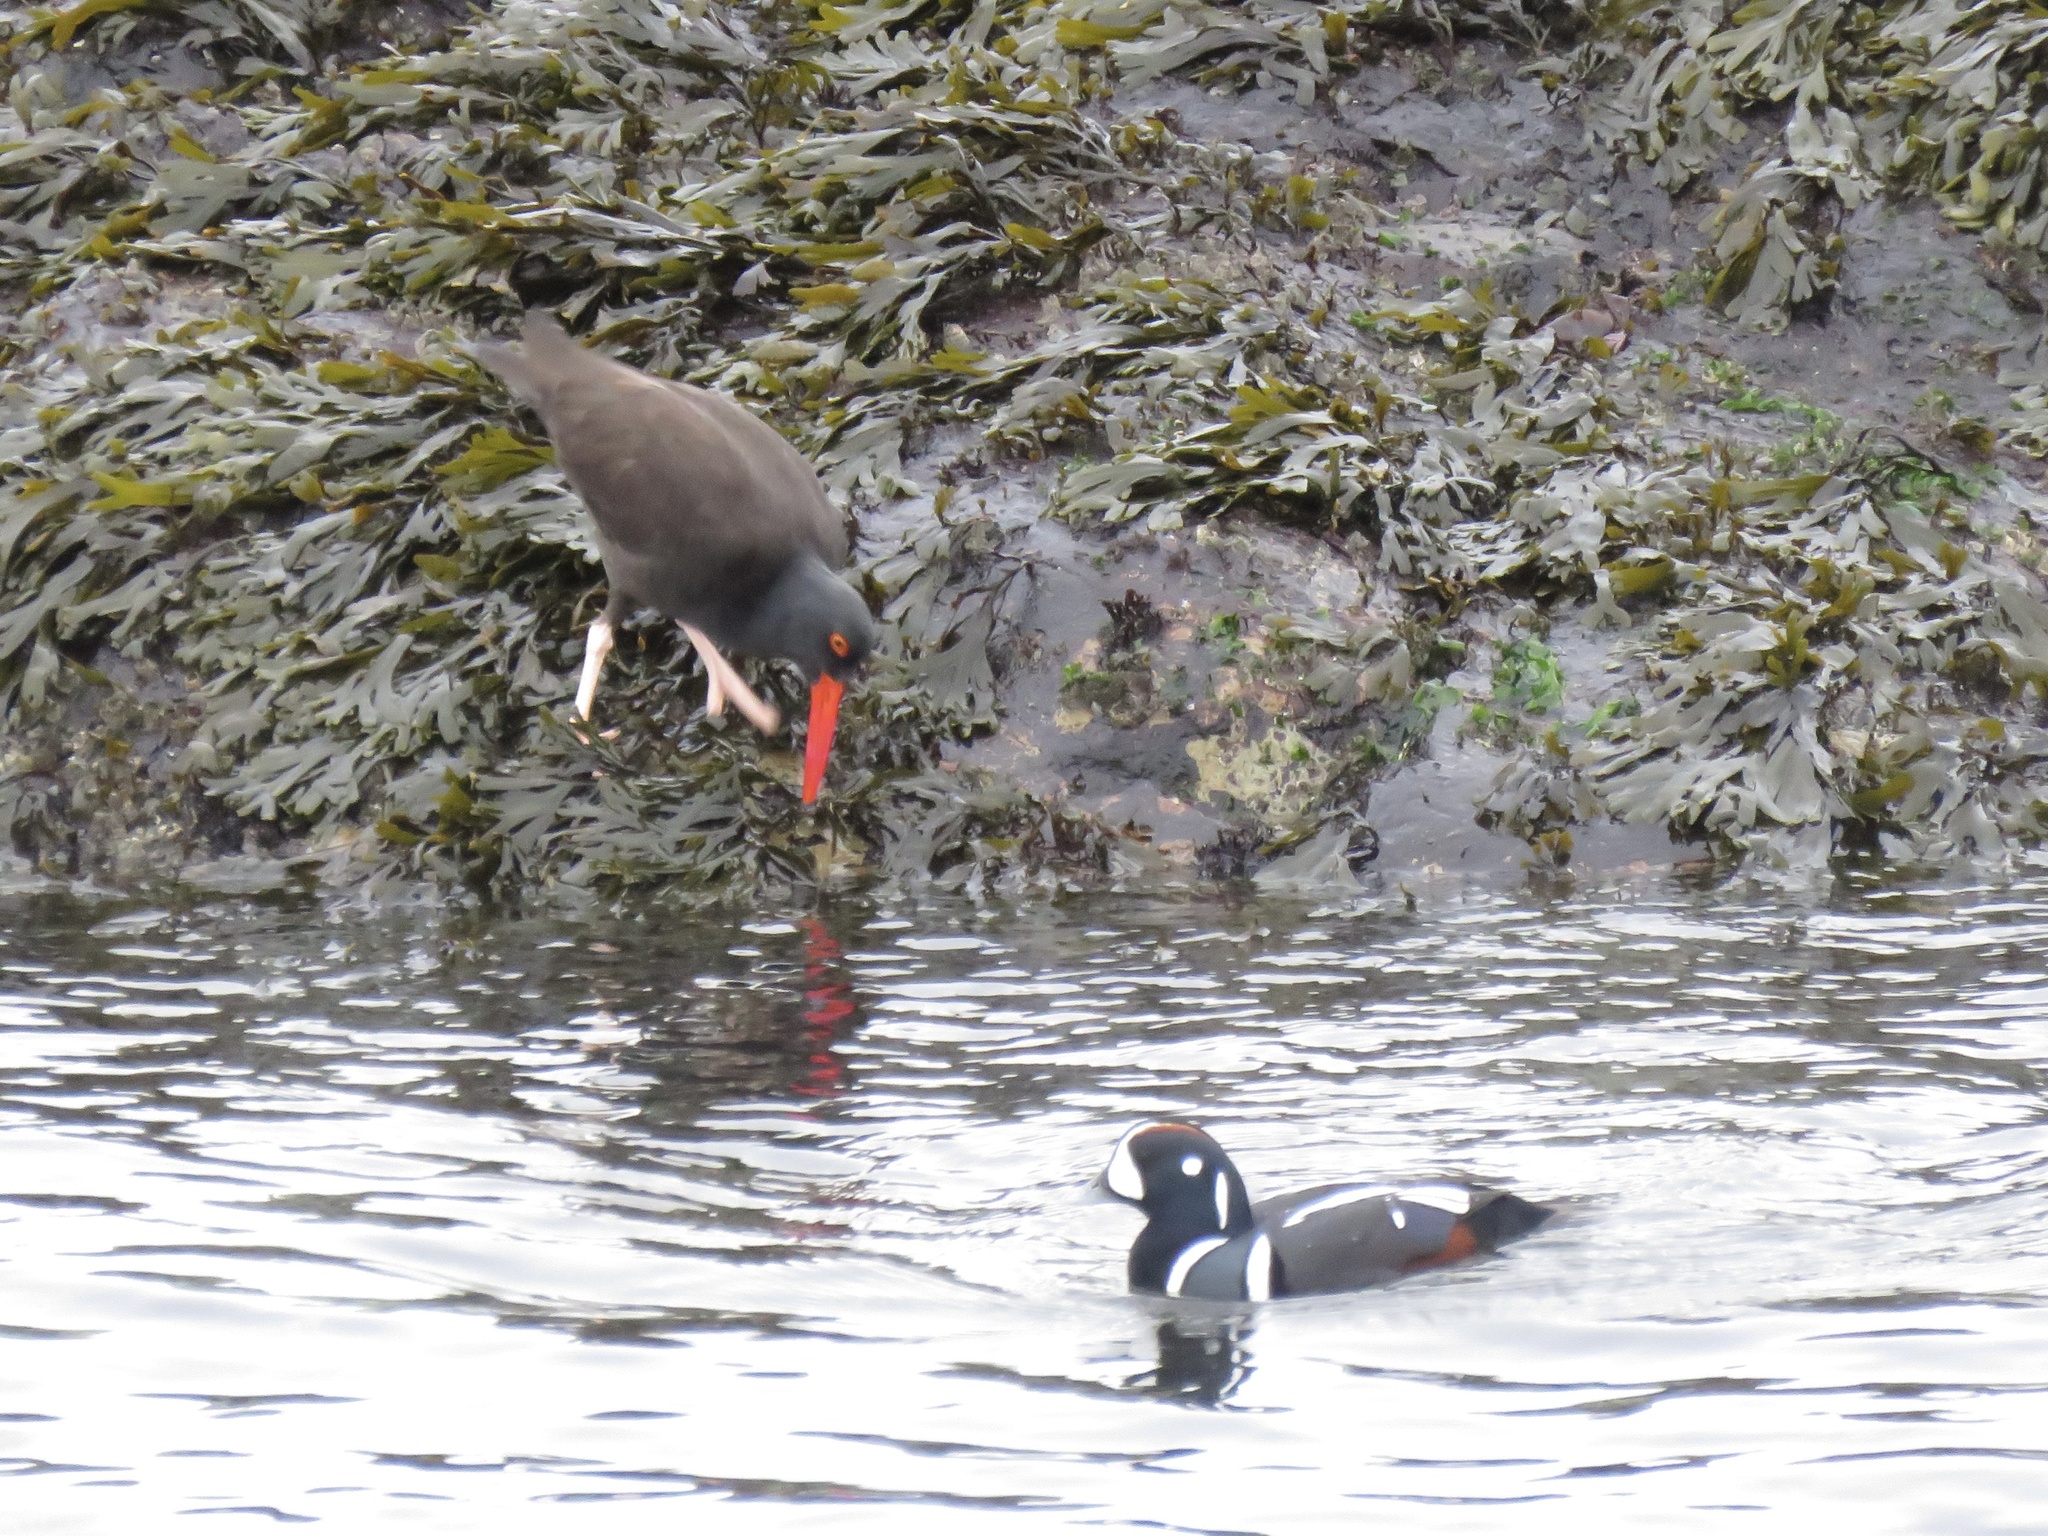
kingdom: Animalia
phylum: Chordata
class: Aves
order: Charadriiformes
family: Haematopodidae
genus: Haematopus
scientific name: Haematopus bachmani
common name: Black oystercatcher
